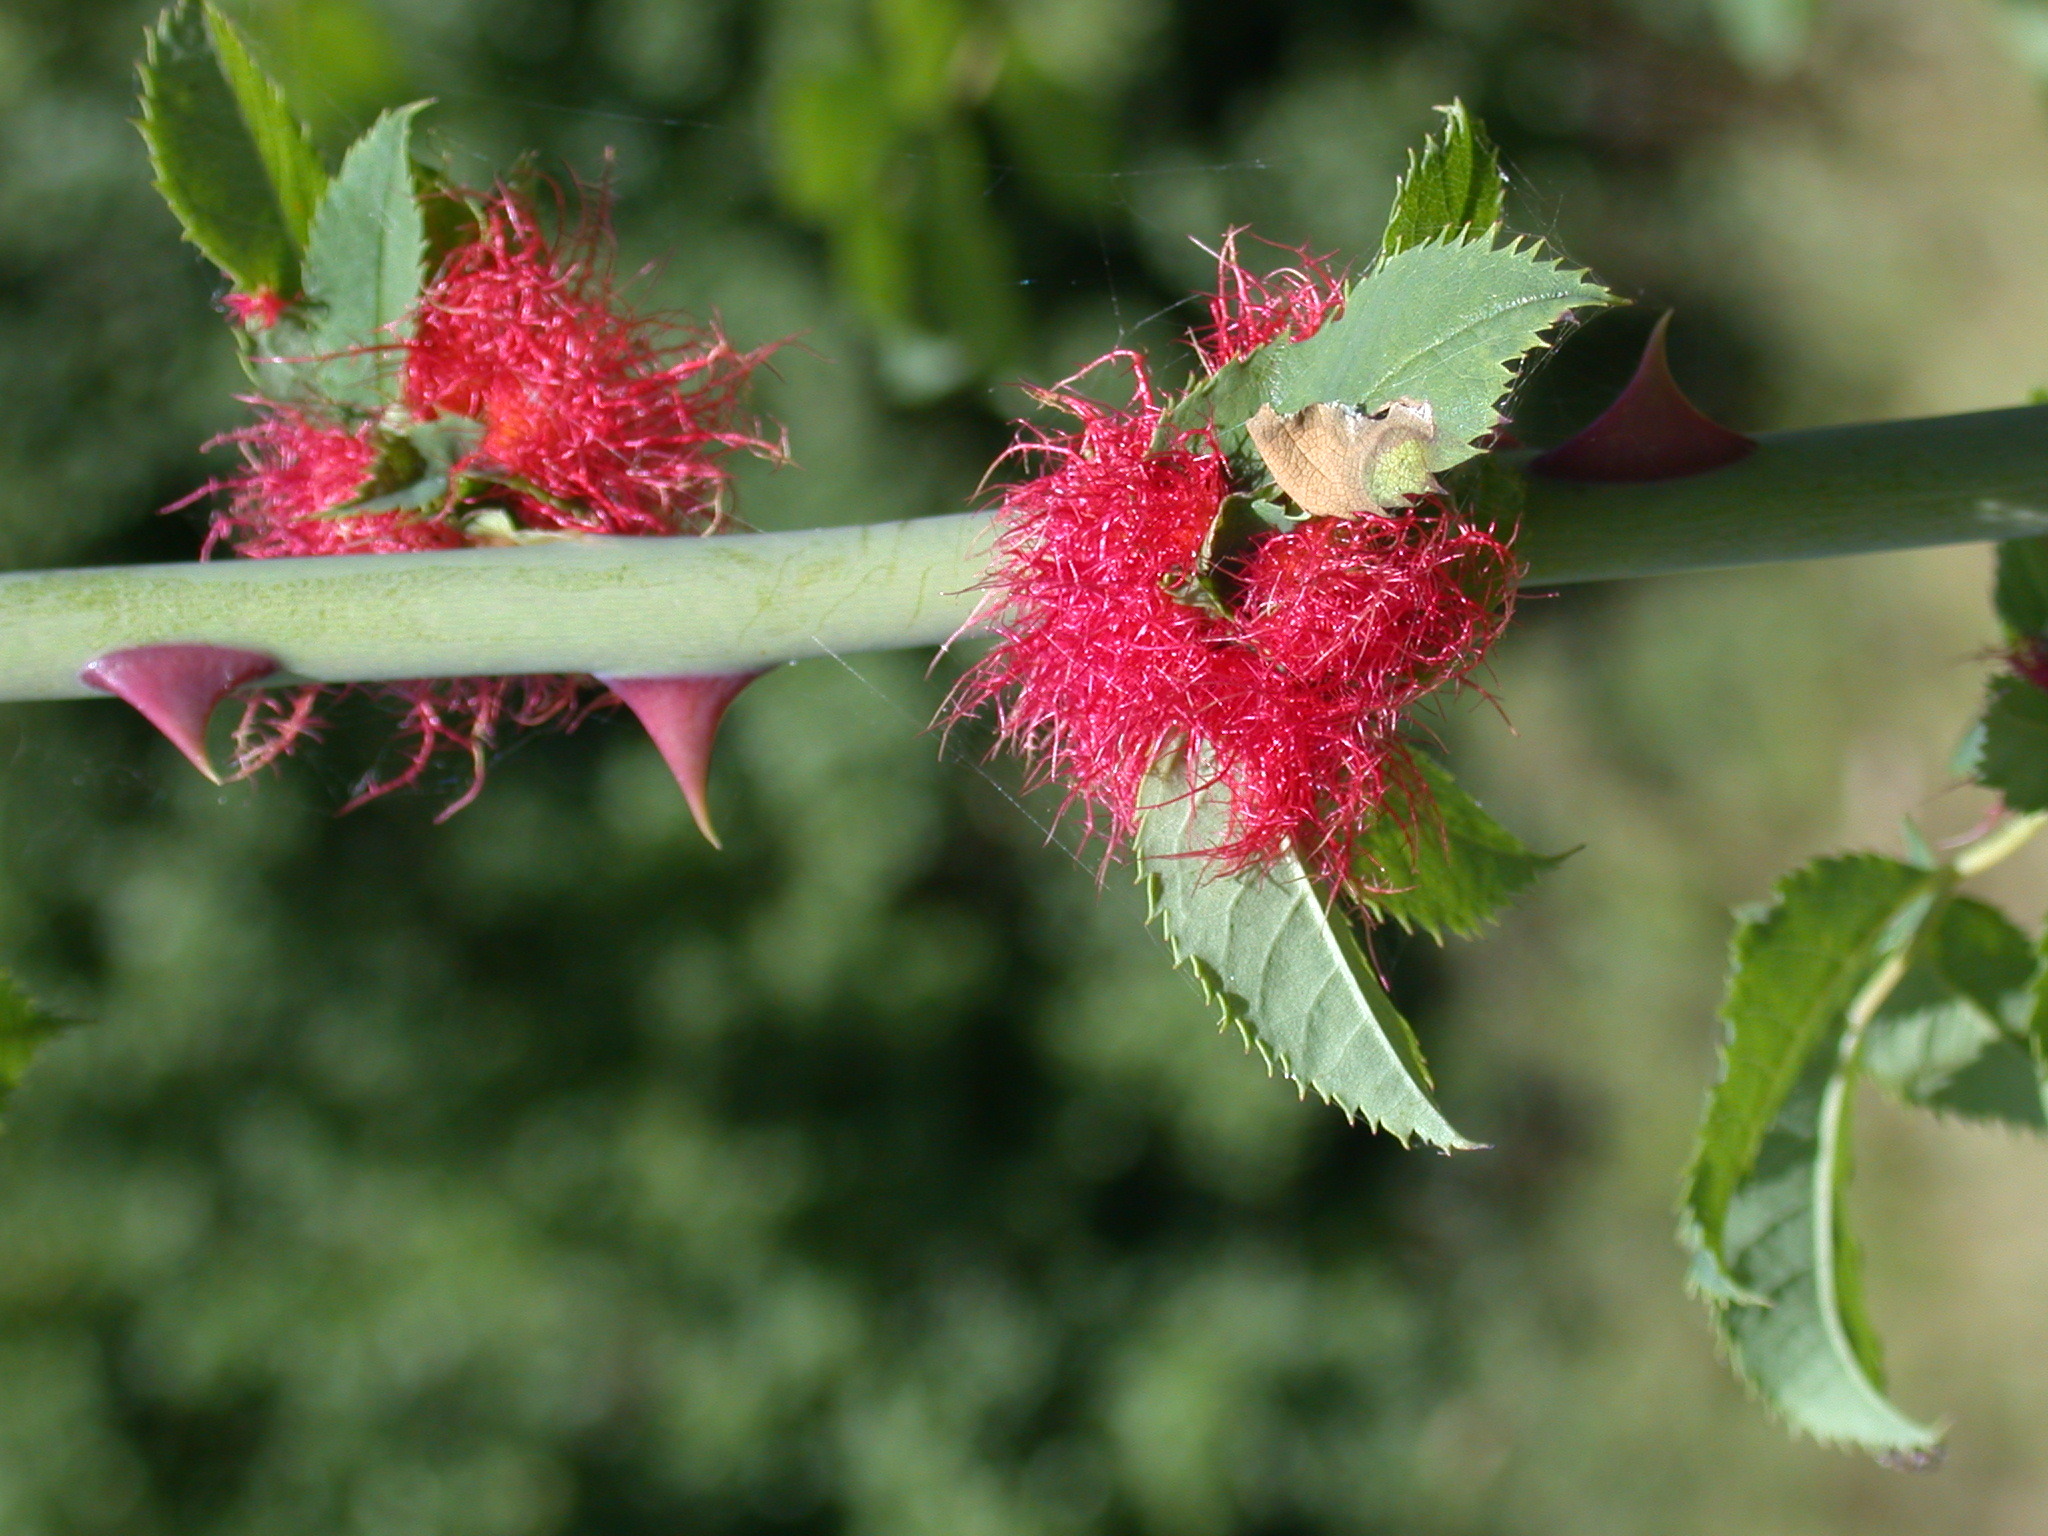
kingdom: Animalia
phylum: Arthropoda
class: Insecta
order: Hymenoptera
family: Cynipidae
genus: Diplolepis
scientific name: Diplolepis rosae
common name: Bedeguar gall
